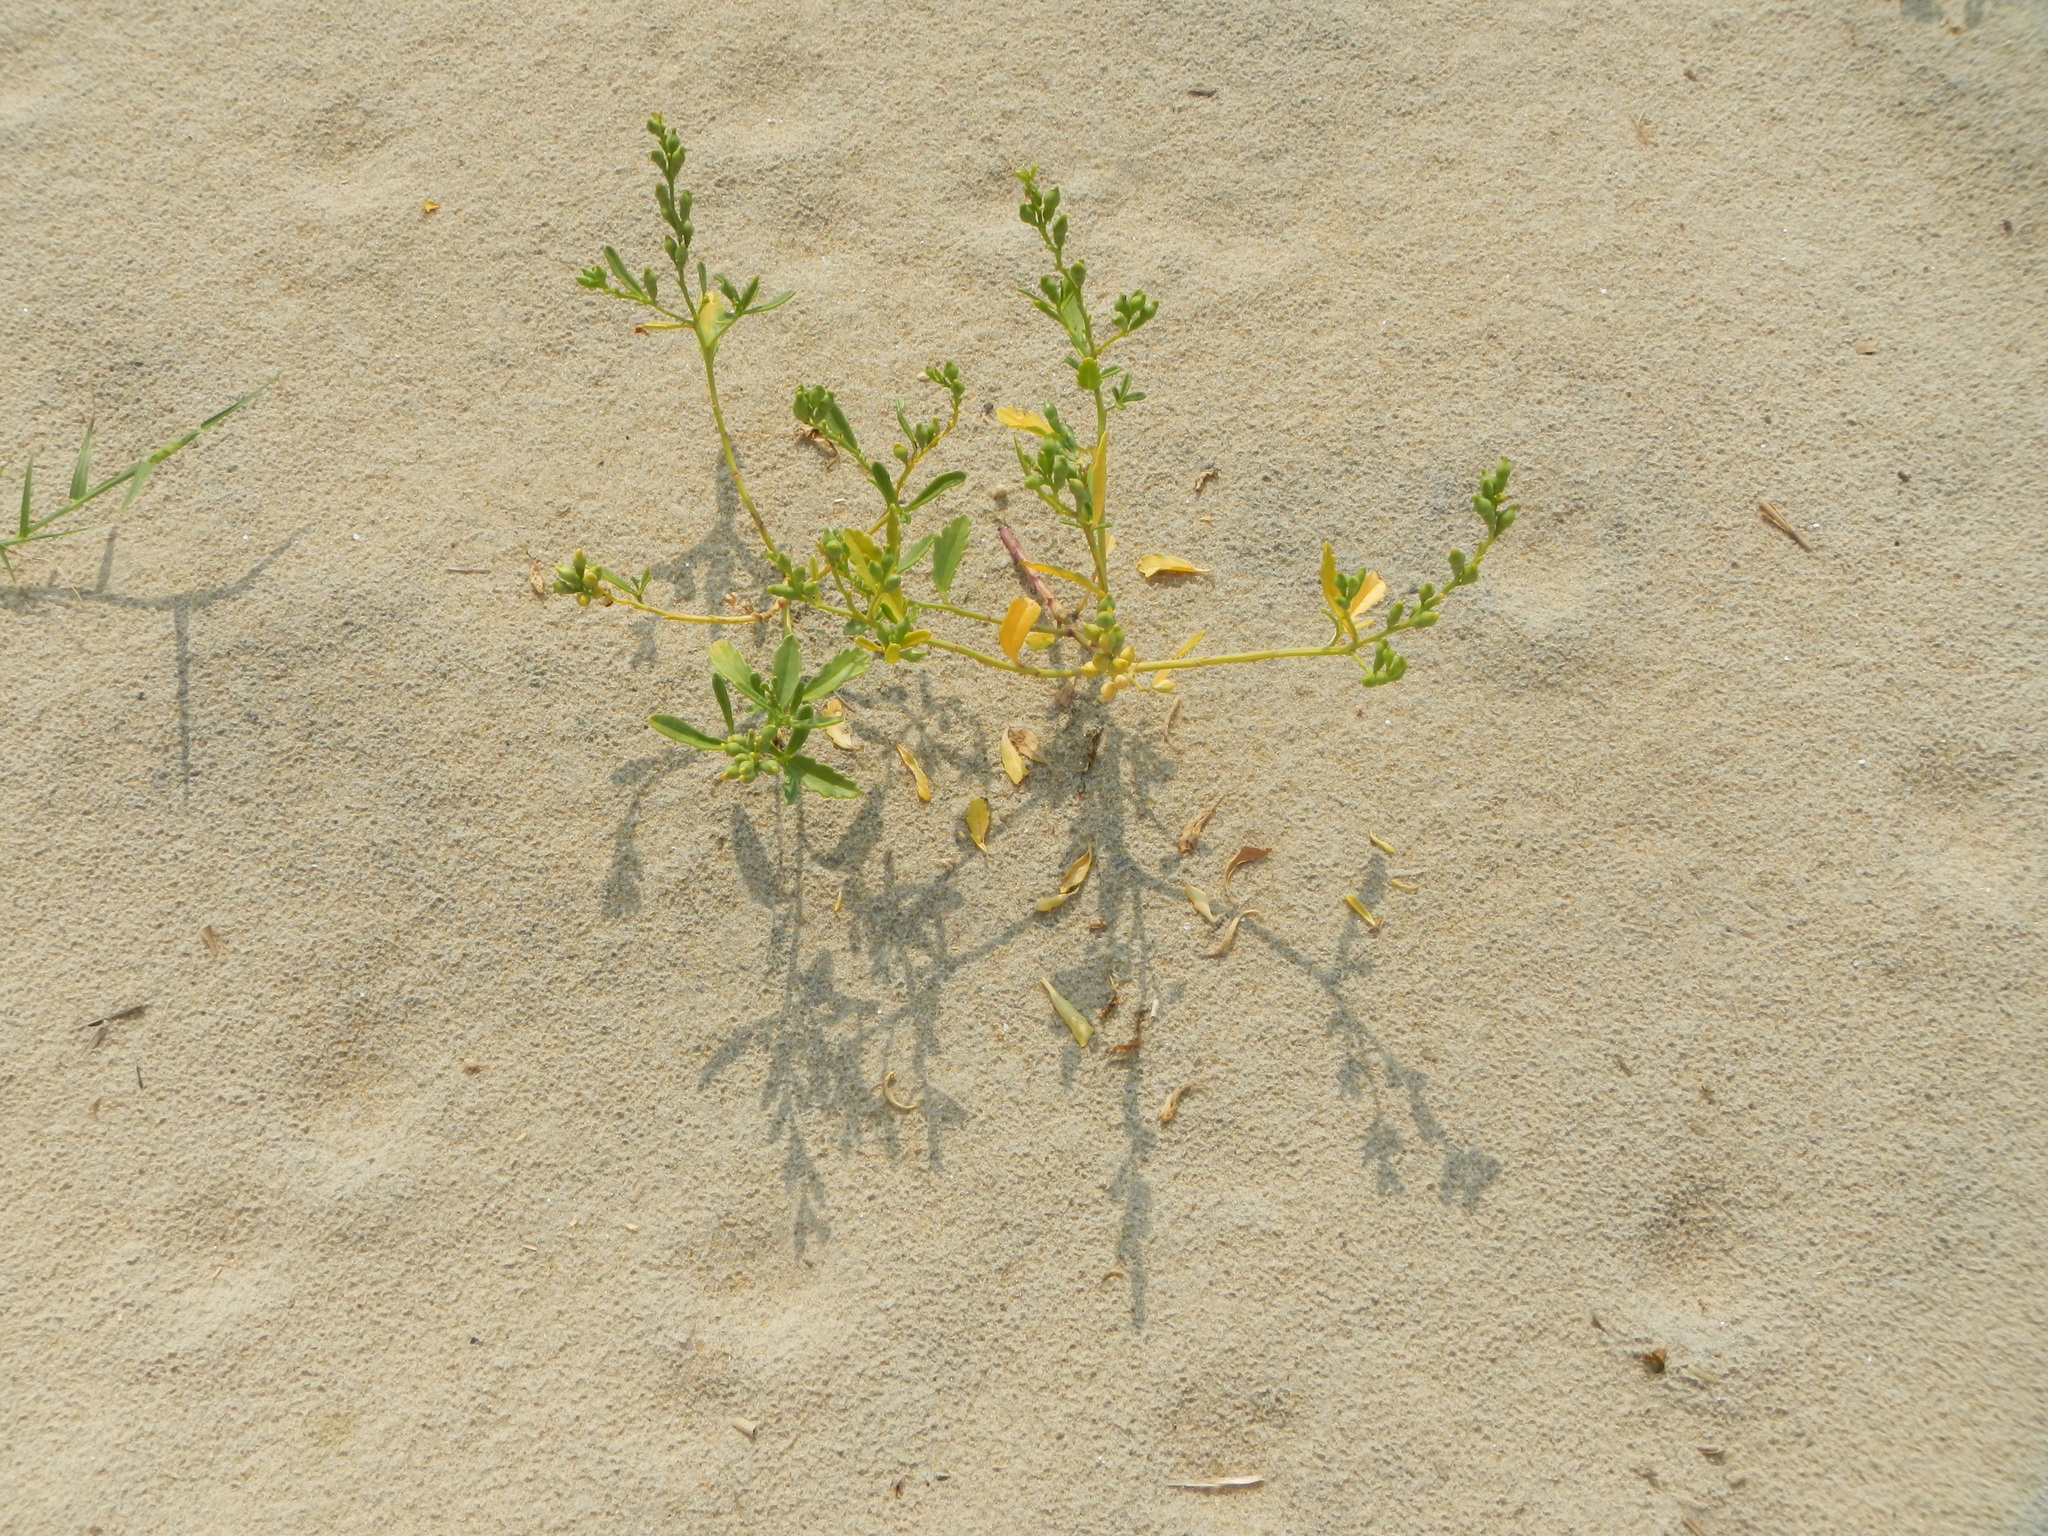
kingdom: Plantae
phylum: Tracheophyta
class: Magnoliopsida
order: Brassicales
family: Brassicaceae
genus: Cakile
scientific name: Cakile edentula
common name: American sea rocket
